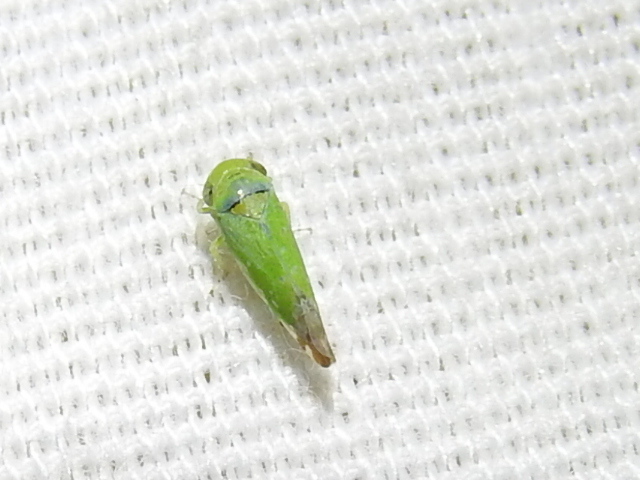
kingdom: Animalia
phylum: Arthropoda
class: Insecta
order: Hemiptera
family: Cicadellidae
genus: Opsius
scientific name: Opsius stactogalus
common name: Leafhopper
